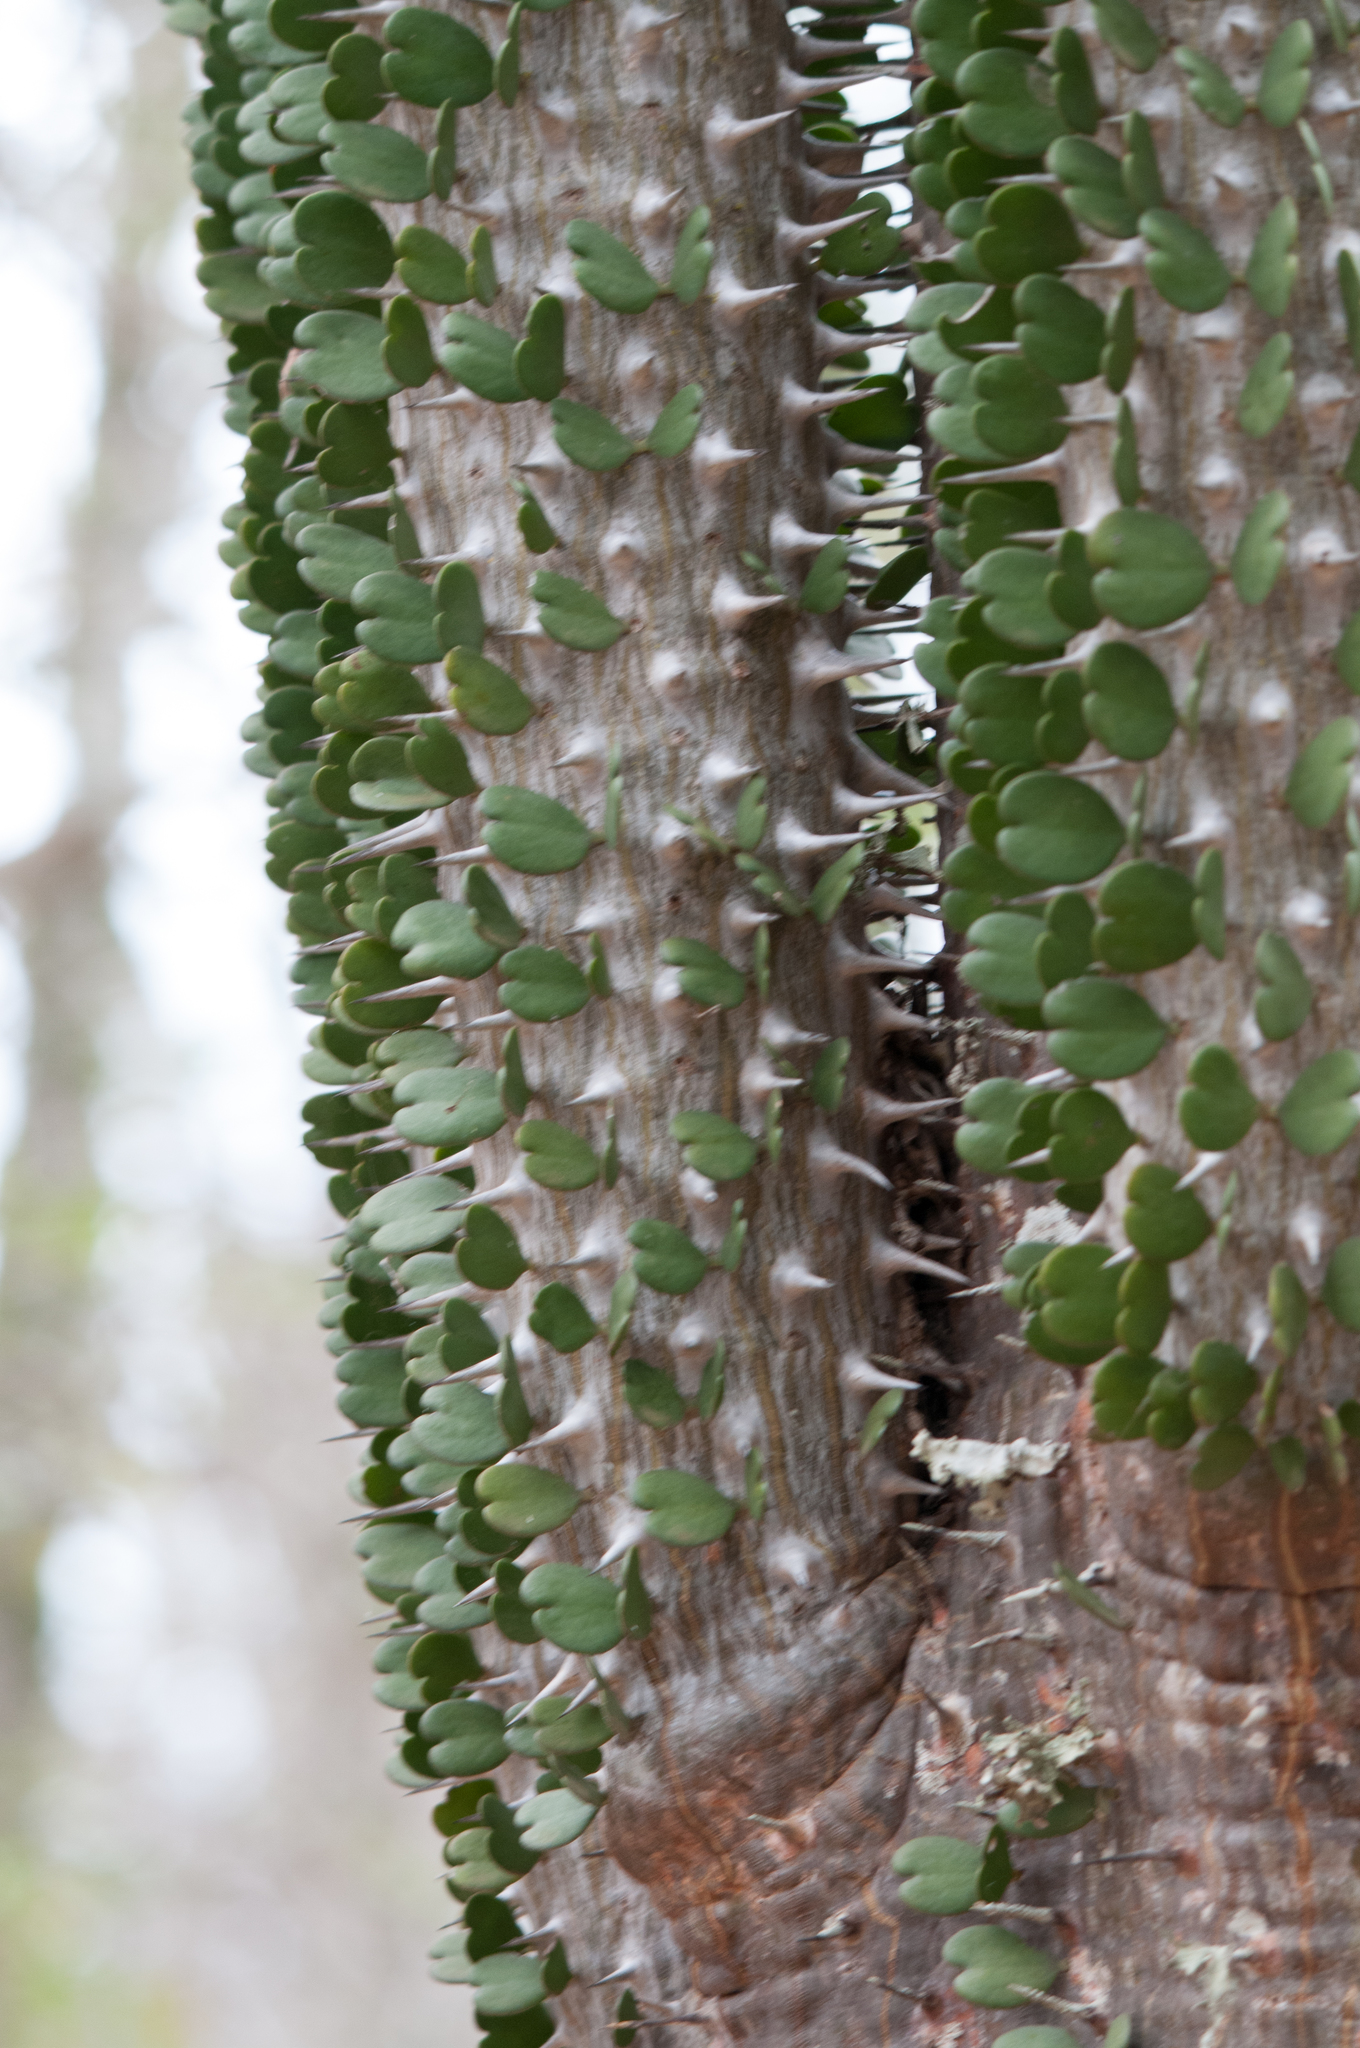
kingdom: Plantae
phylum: Tracheophyta
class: Magnoliopsida
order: Caryophyllales
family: Didiereaceae
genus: Alluaudia
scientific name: Alluaudia ascendens
